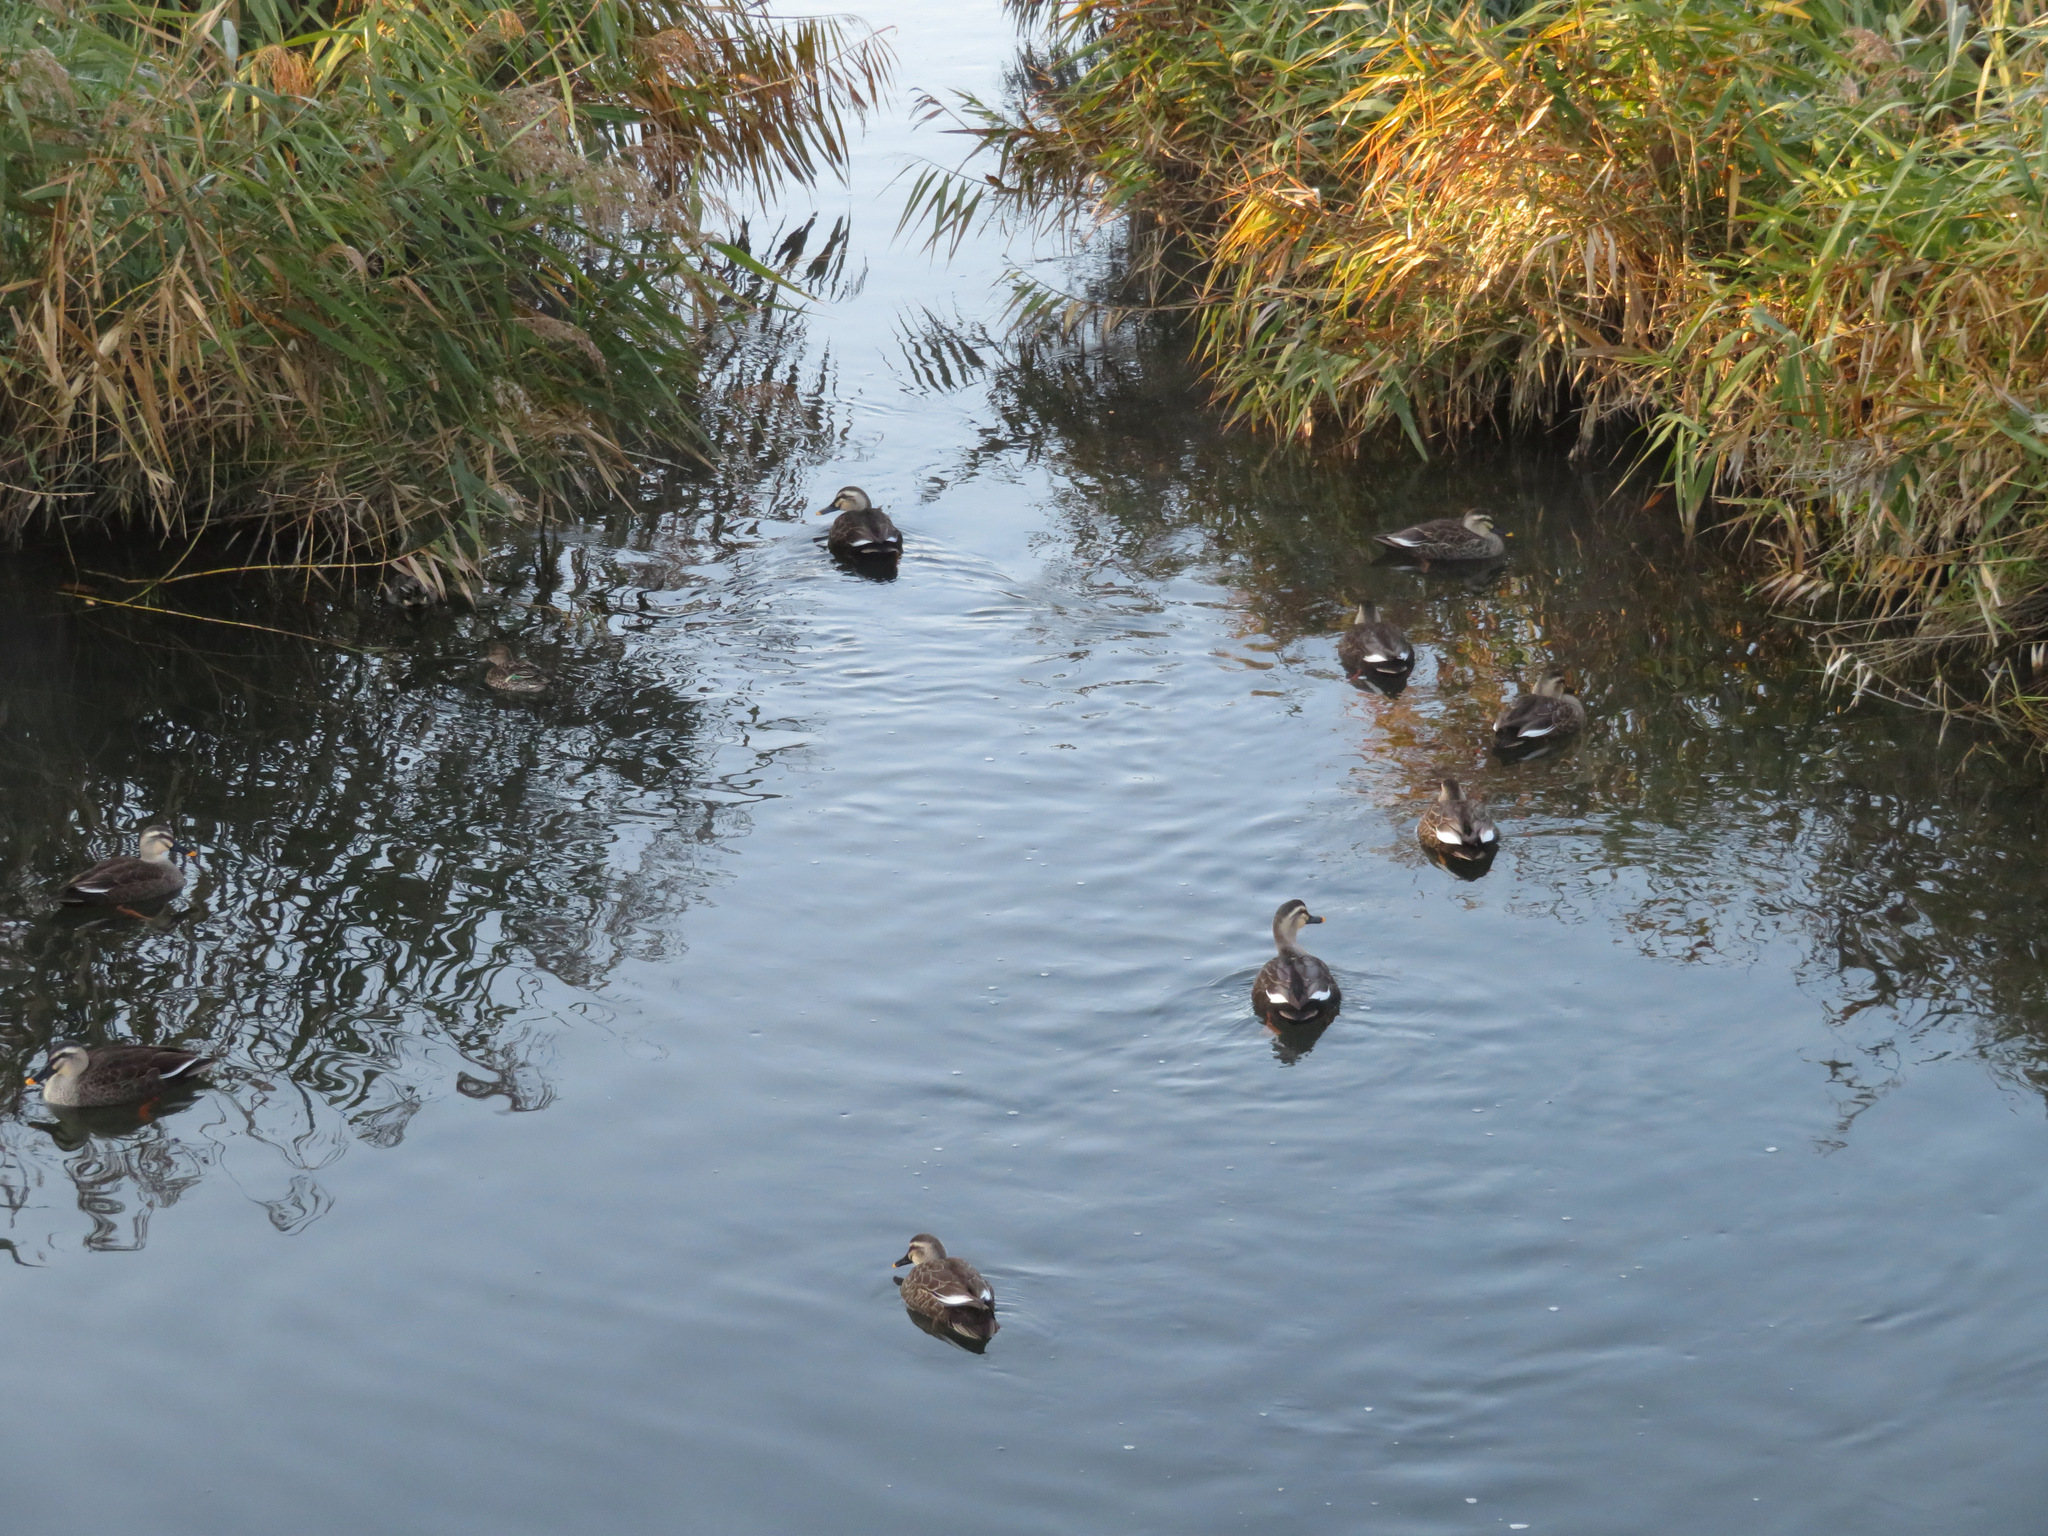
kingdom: Animalia
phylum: Chordata
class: Aves
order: Anseriformes
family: Anatidae
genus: Anas
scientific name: Anas zonorhyncha
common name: Eastern spot-billed duck
